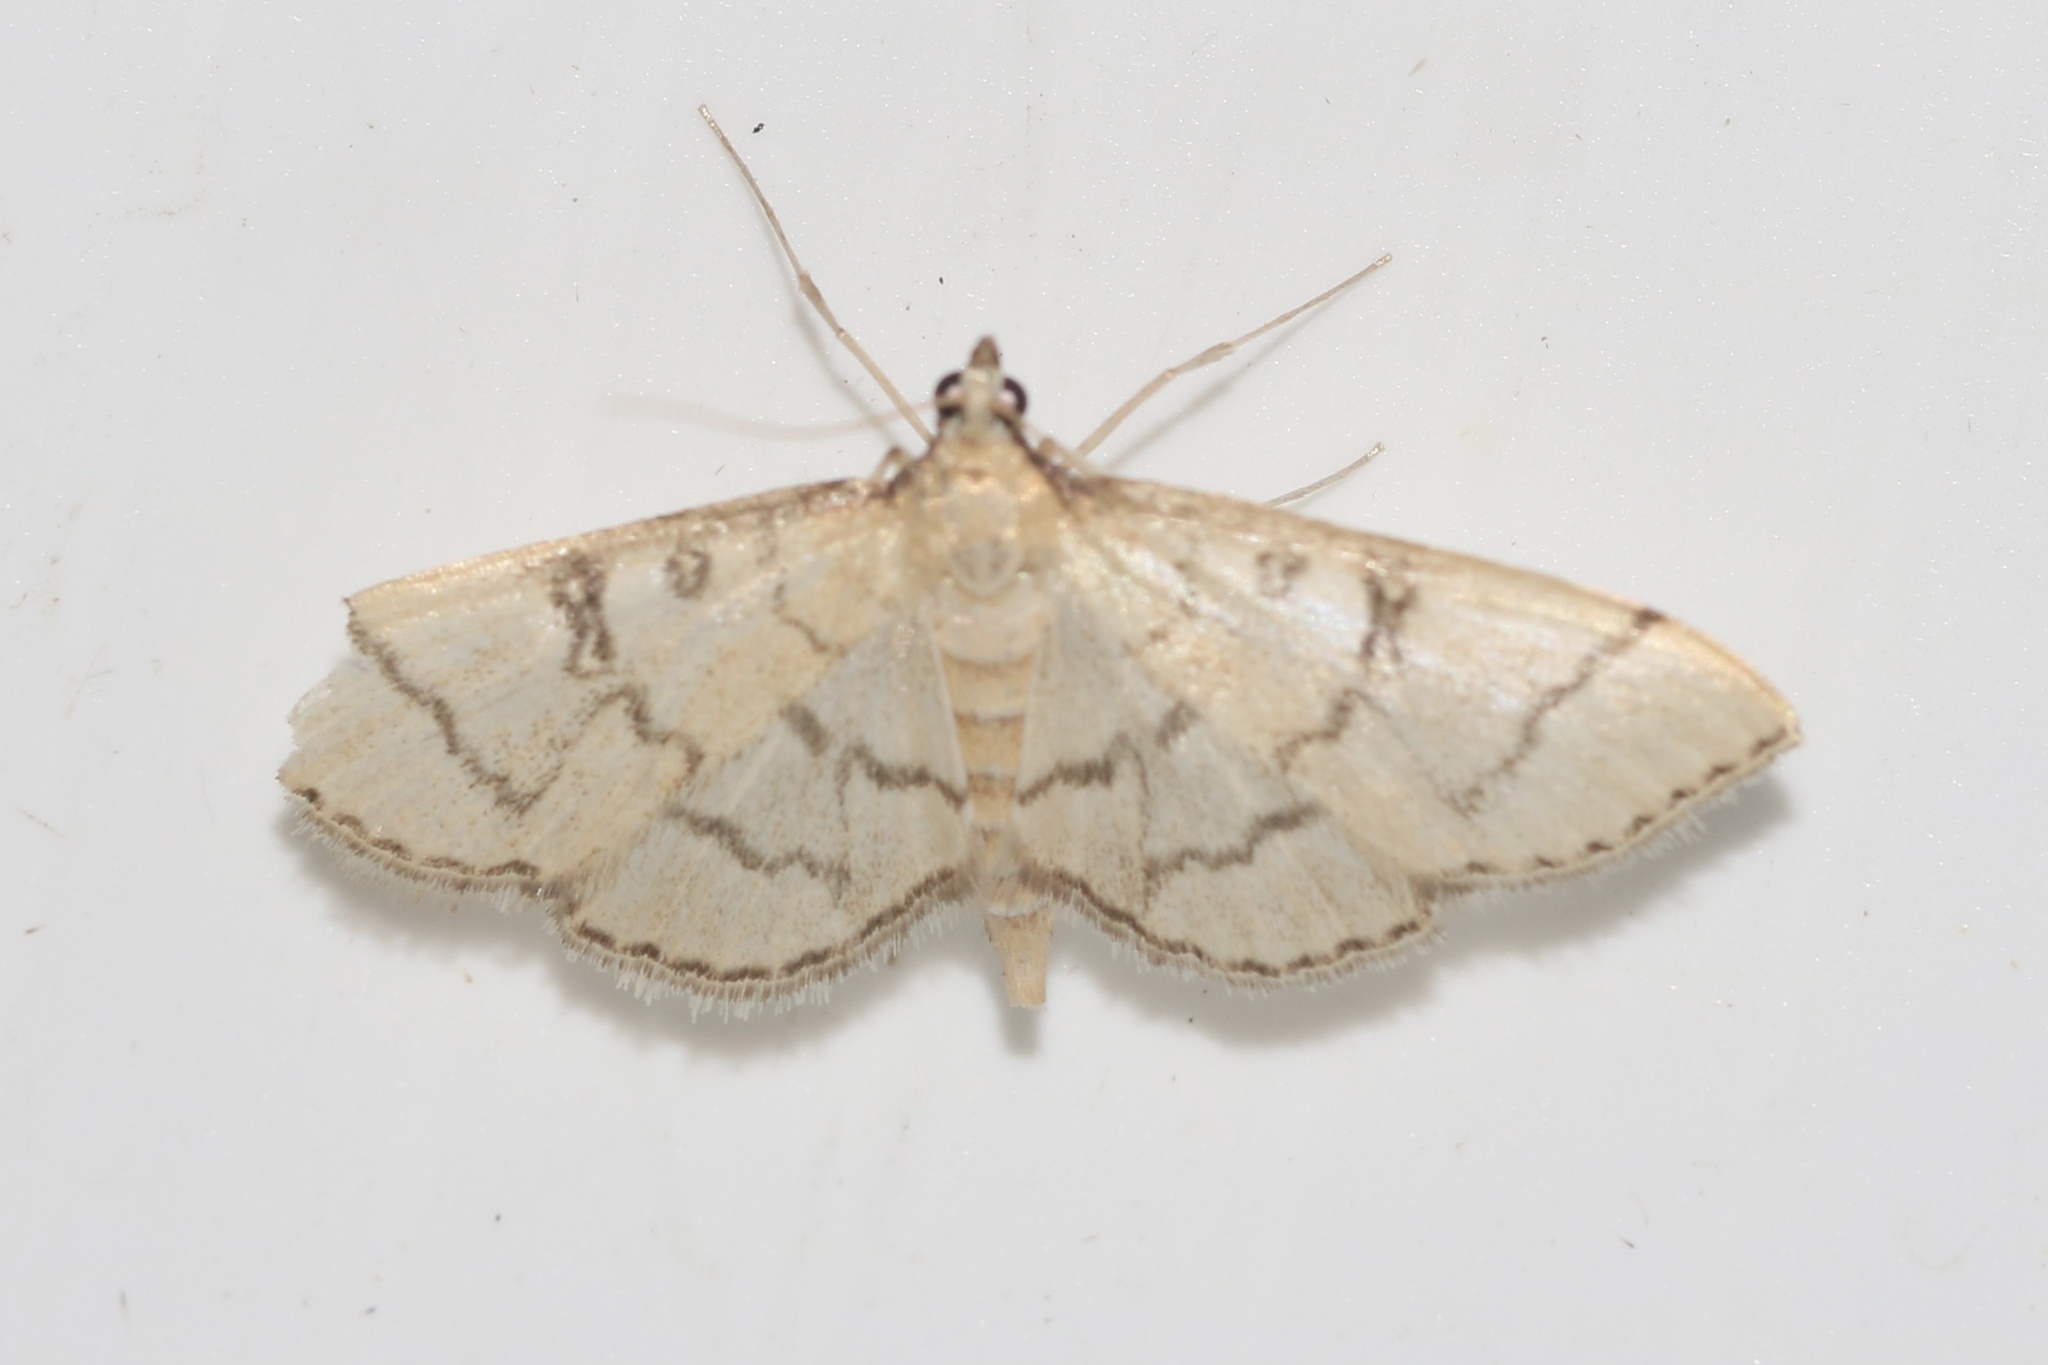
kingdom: Animalia
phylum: Arthropoda
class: Insecta
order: Lepidoptera
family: Crambidae
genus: Lamprosema
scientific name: Lamprosema Blepharomastix ranalis
